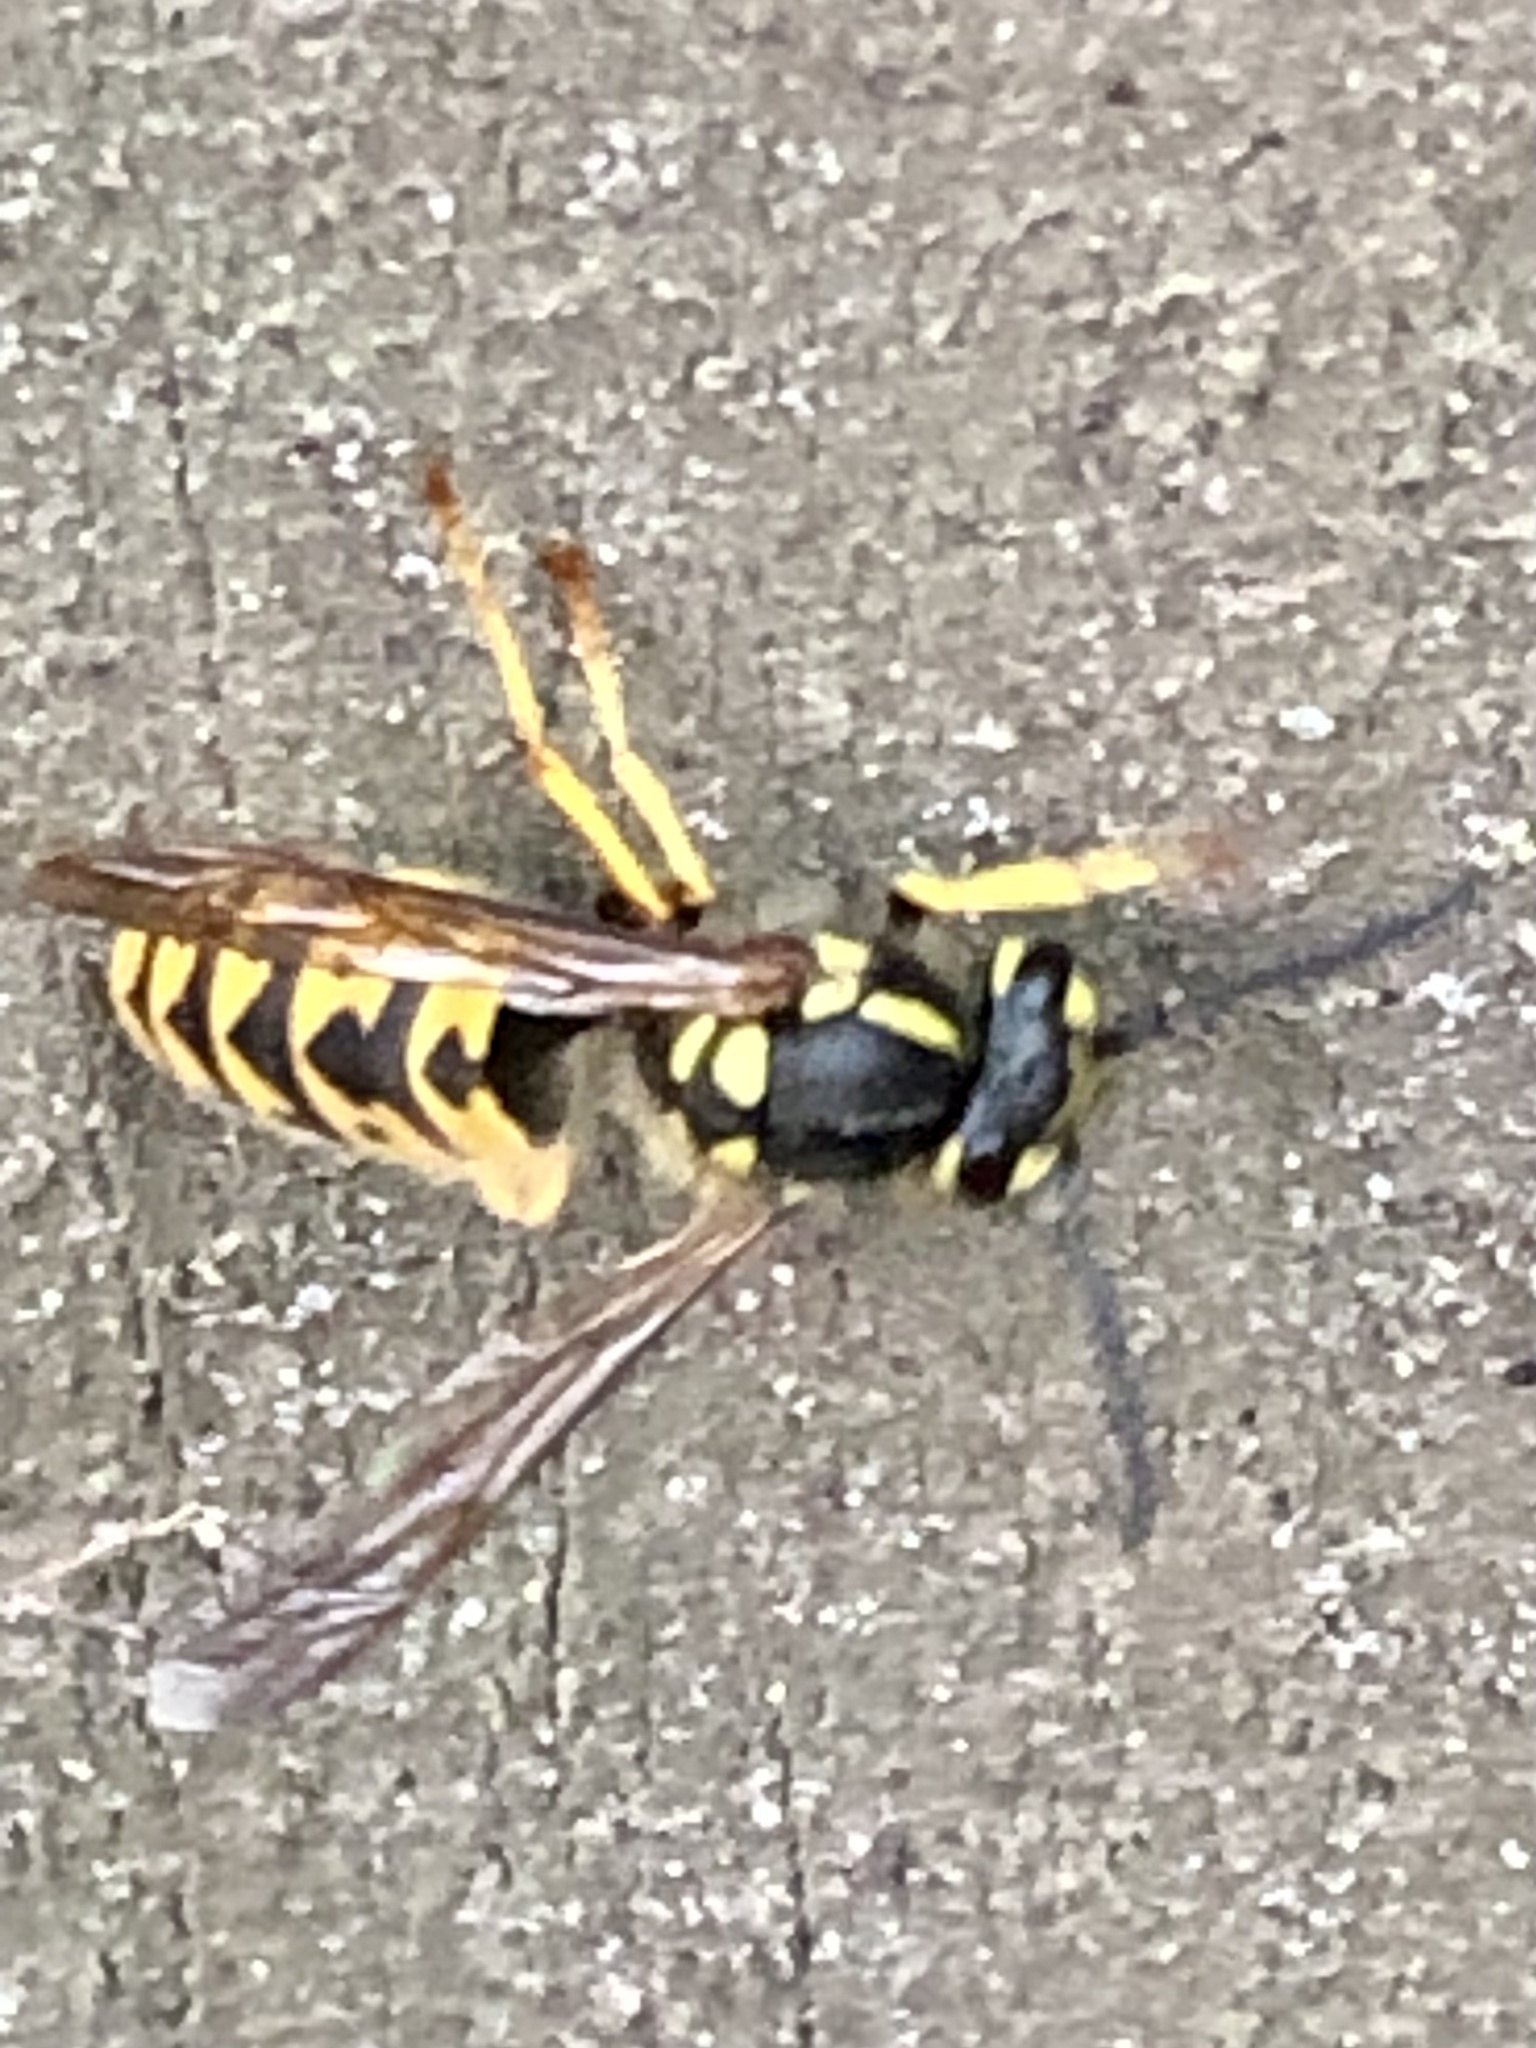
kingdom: Animalia
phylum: Arthropoda
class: Insecta
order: Hymenoptera
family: Vespidae
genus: Vespula
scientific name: Vespula germanica
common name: German wasp
